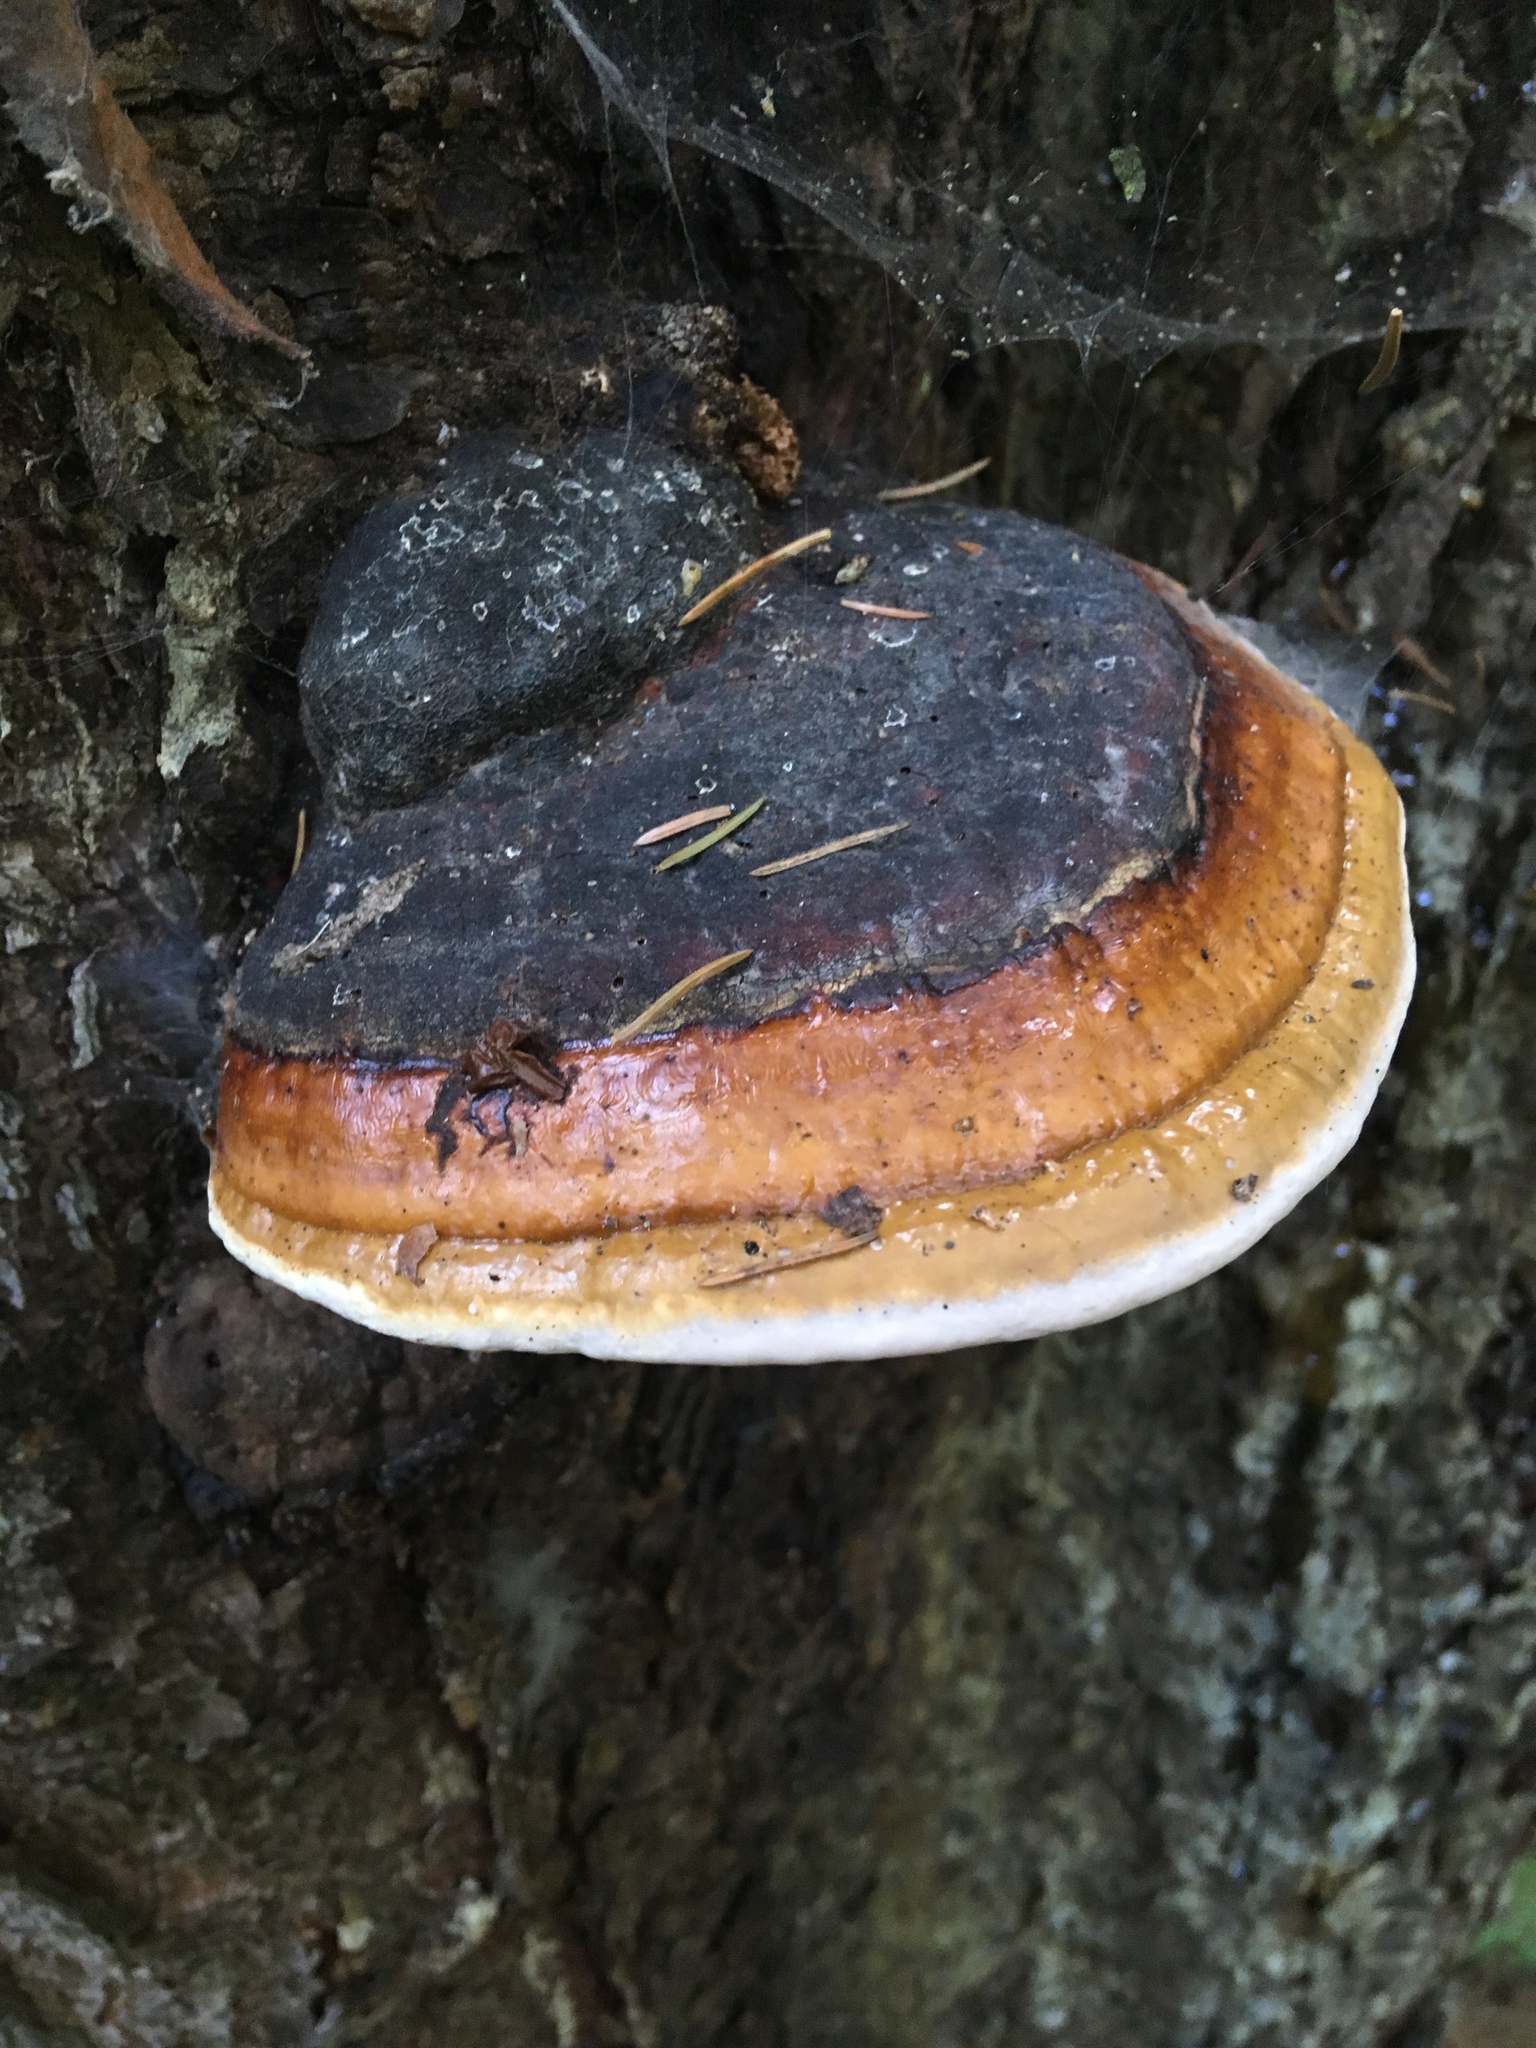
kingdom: Fungi
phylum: Basidiomycota
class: Agaricomycetes
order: Polyporales
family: Fomitopsidaceae
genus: Fomitopsis
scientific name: Fomitopsis pinicola
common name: Red-belted bracket
